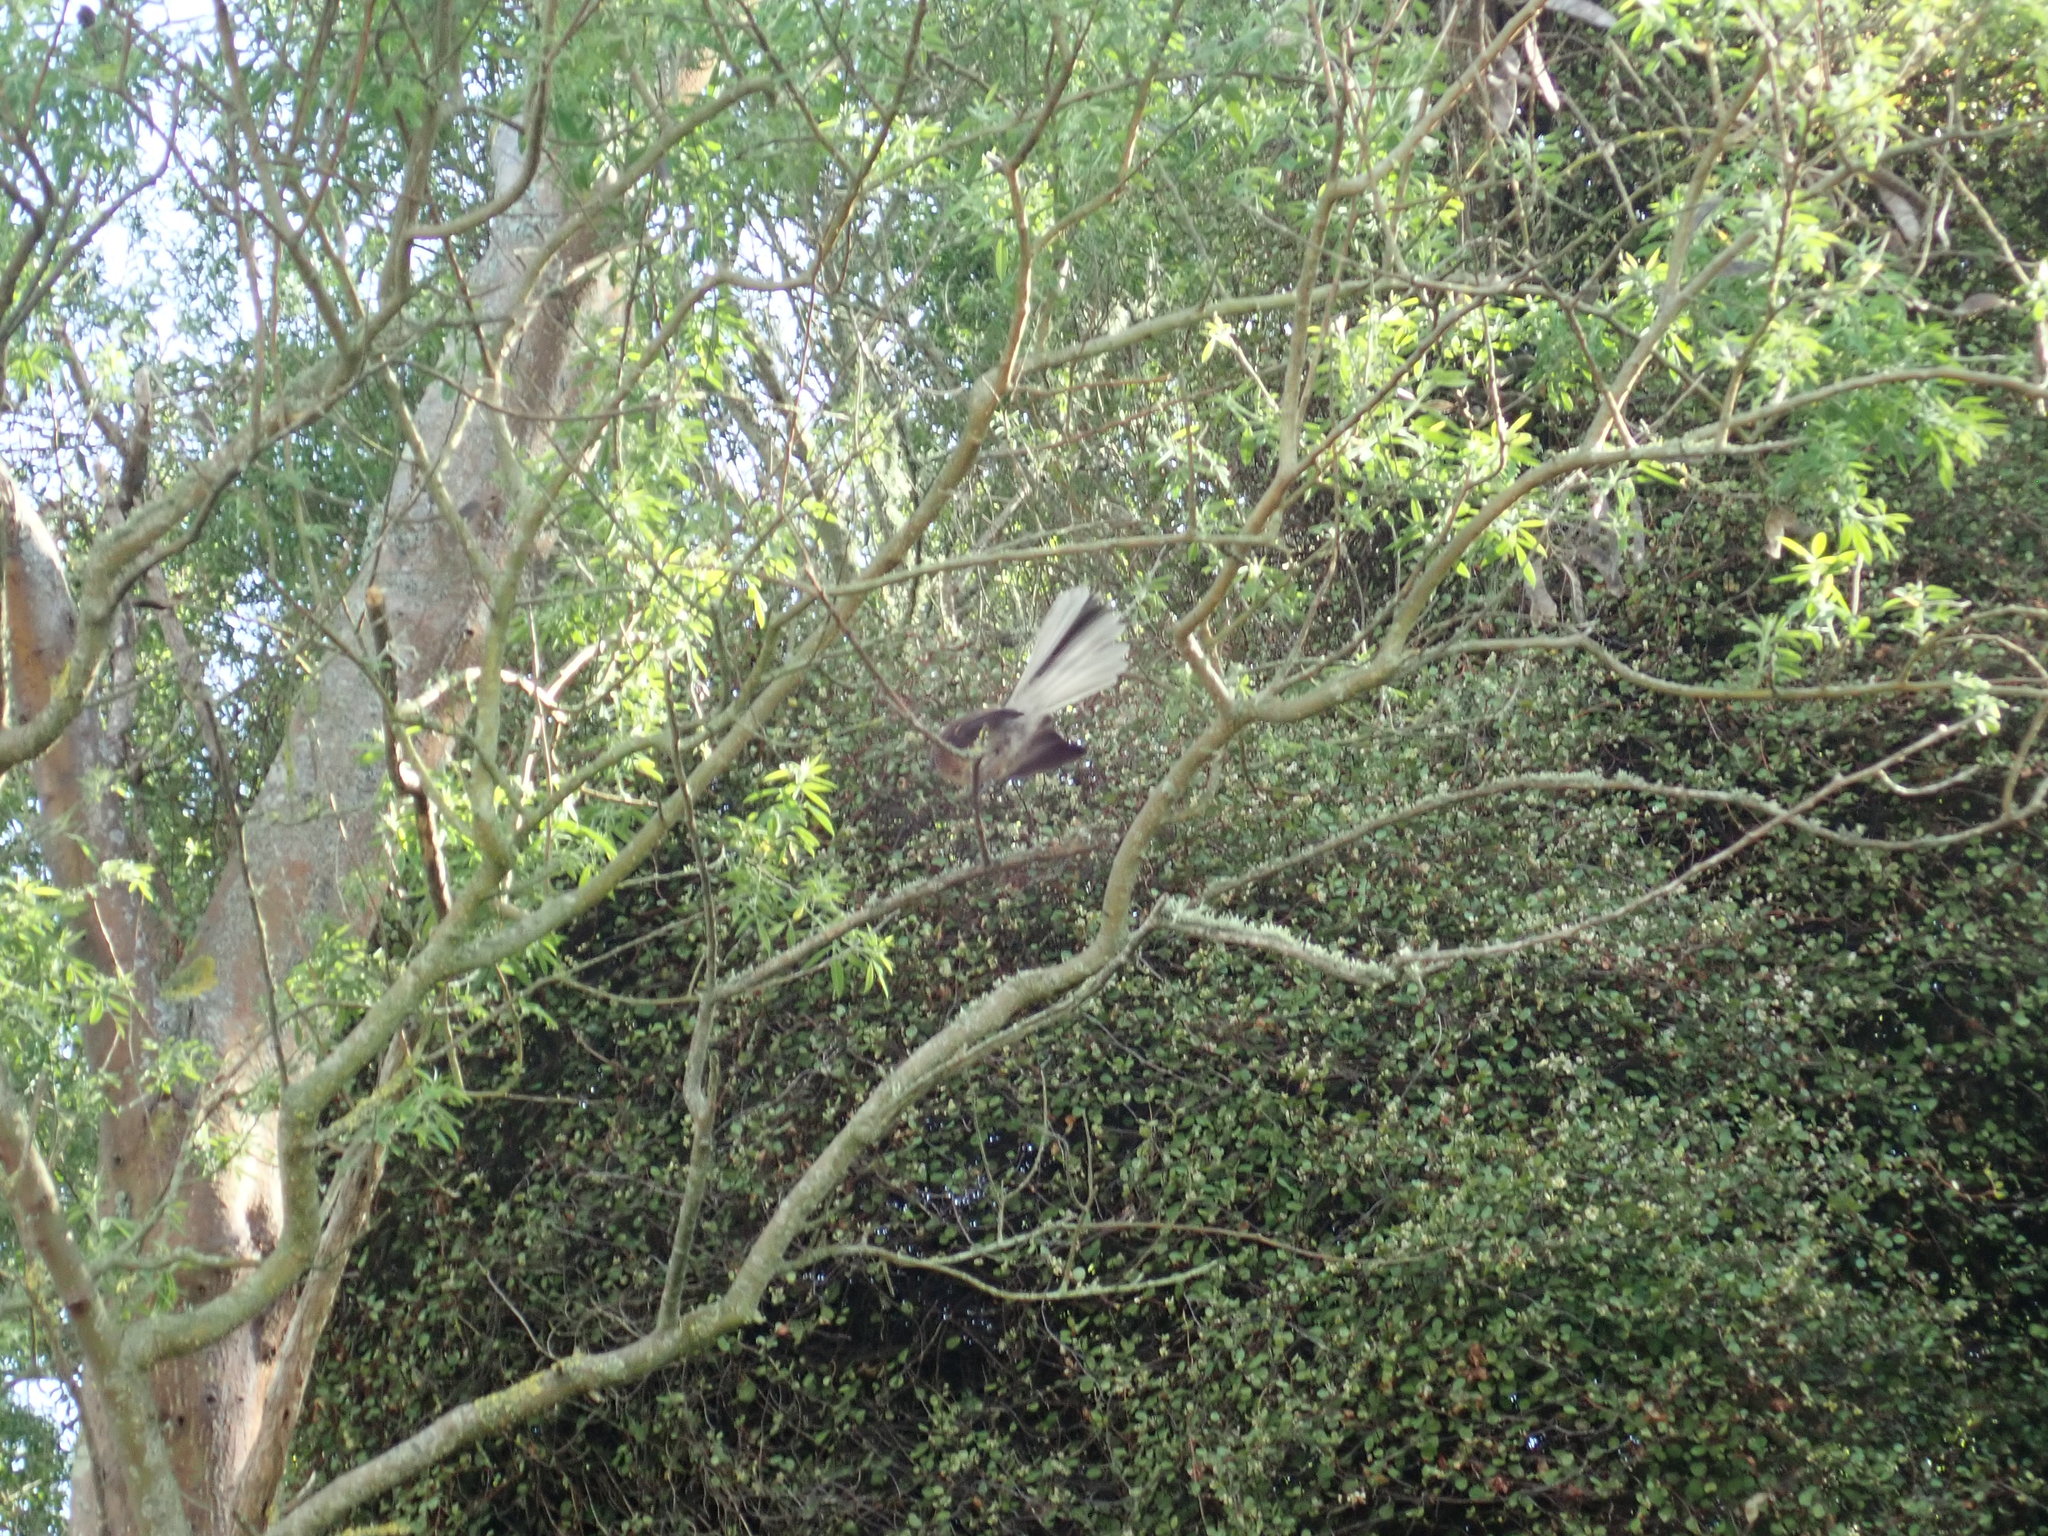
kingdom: Animalia
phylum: Chordata
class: Aves
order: Passeriformes
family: Rhipiduridae
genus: Rhipidura
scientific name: Rhipidura fuliginosa
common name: New zealand fantail
